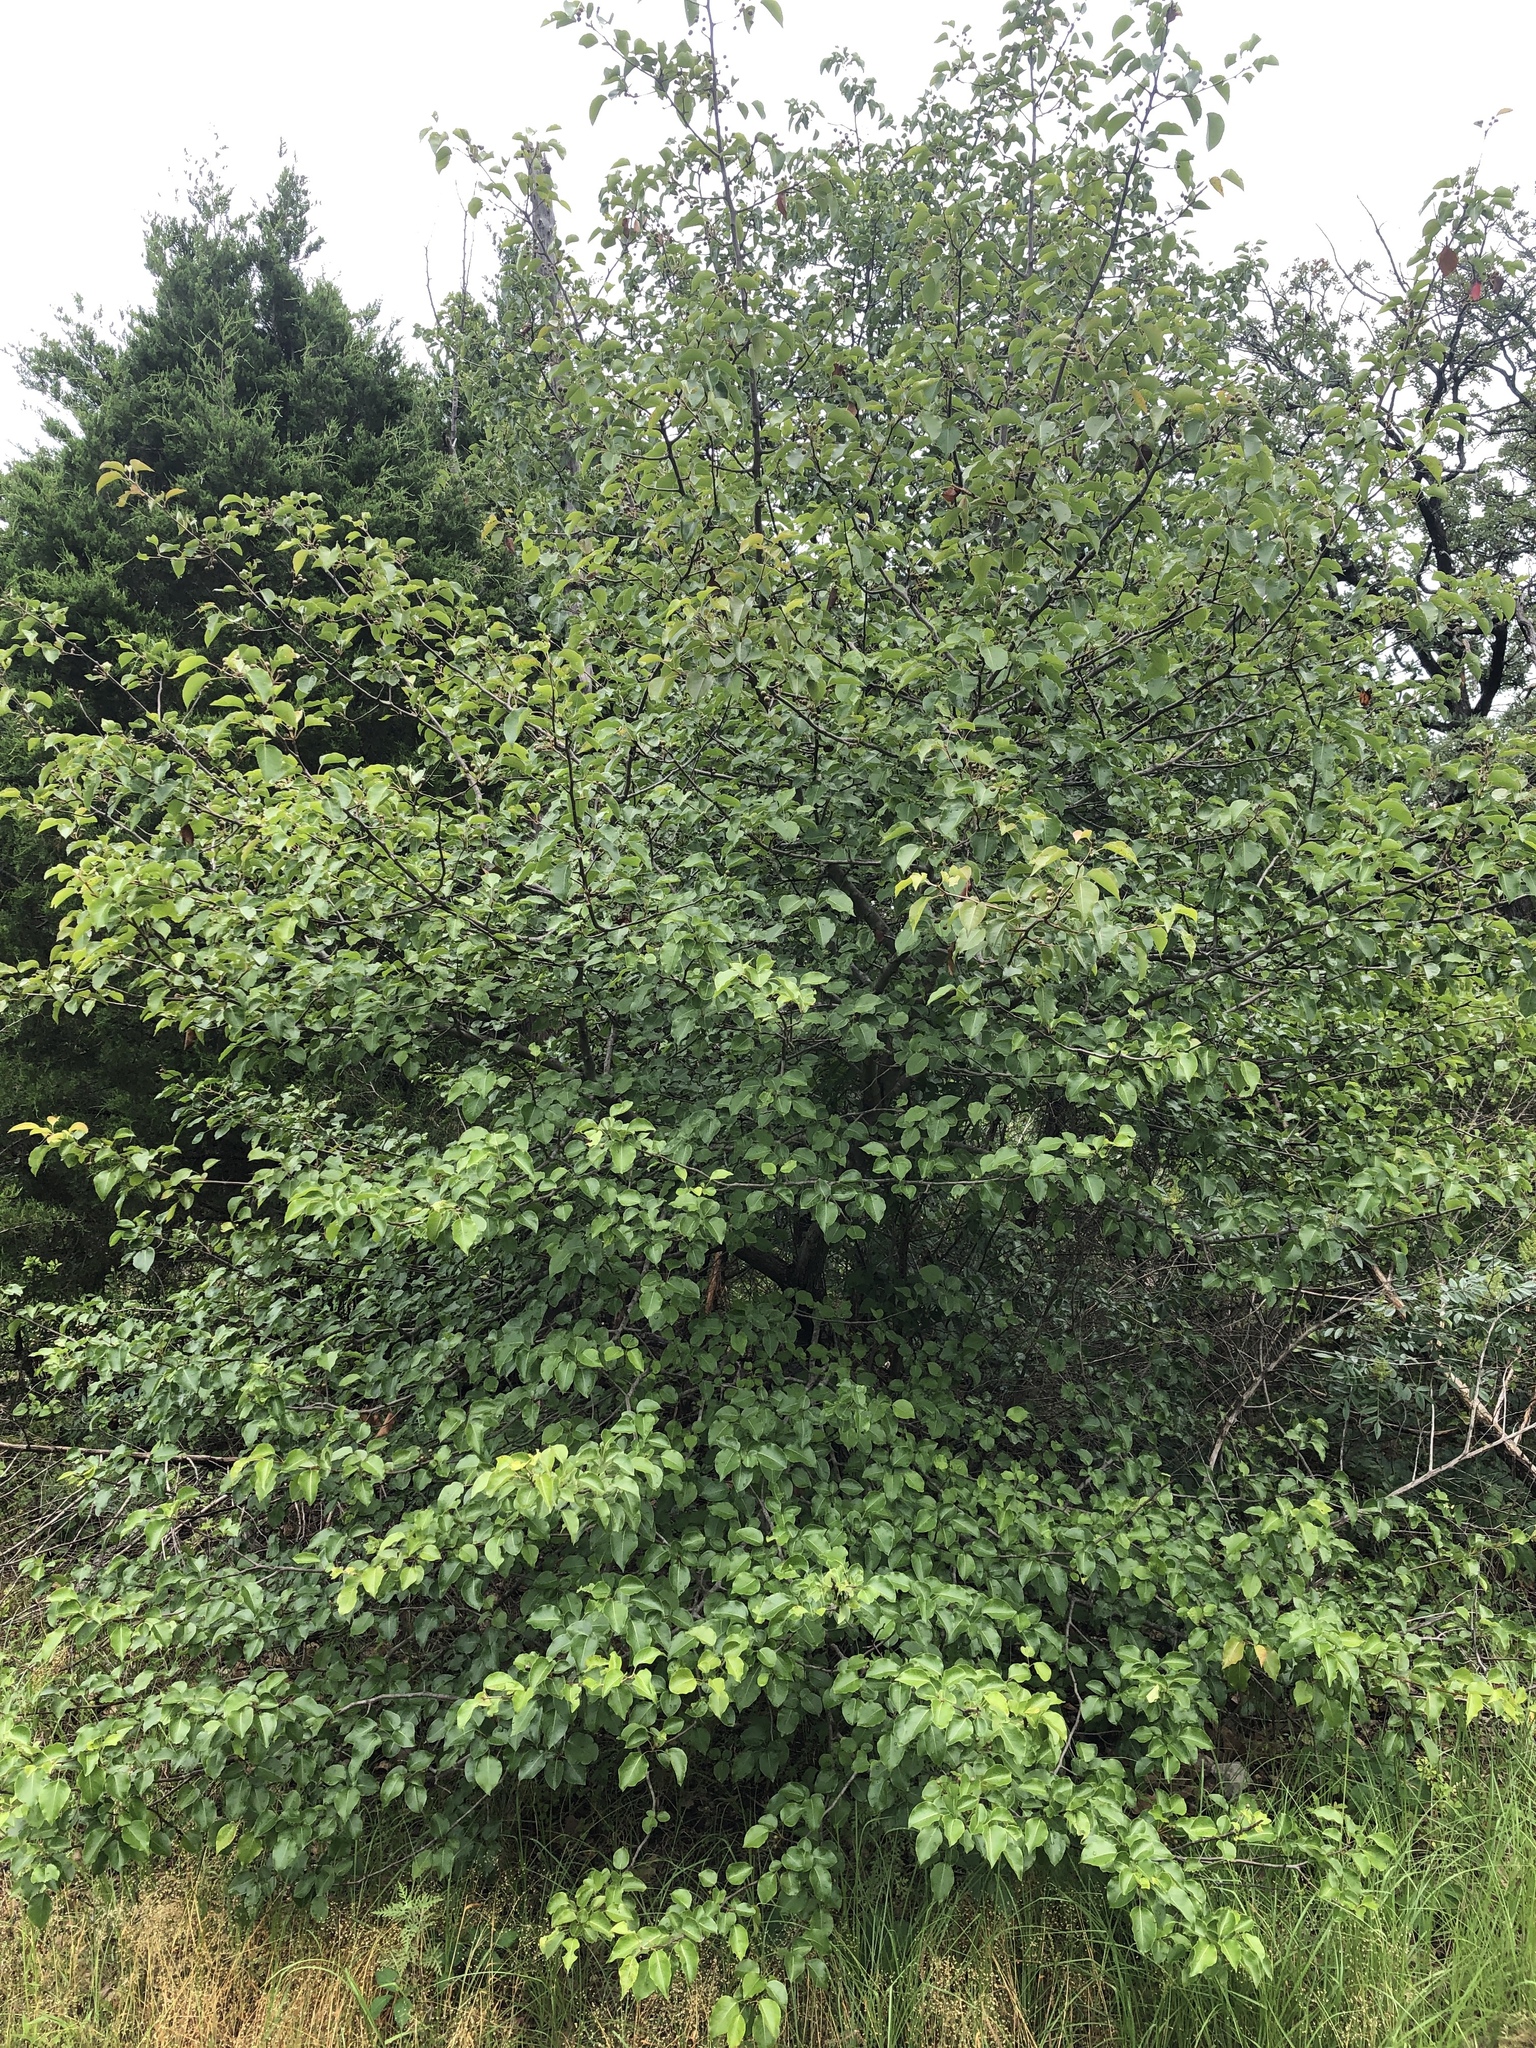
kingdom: Plantae
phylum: Tracheophyta
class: Magnoliopsida
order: Rosales
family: Rosaceae
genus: Pyrus
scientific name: Pyrus calleryana
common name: Callery pear
